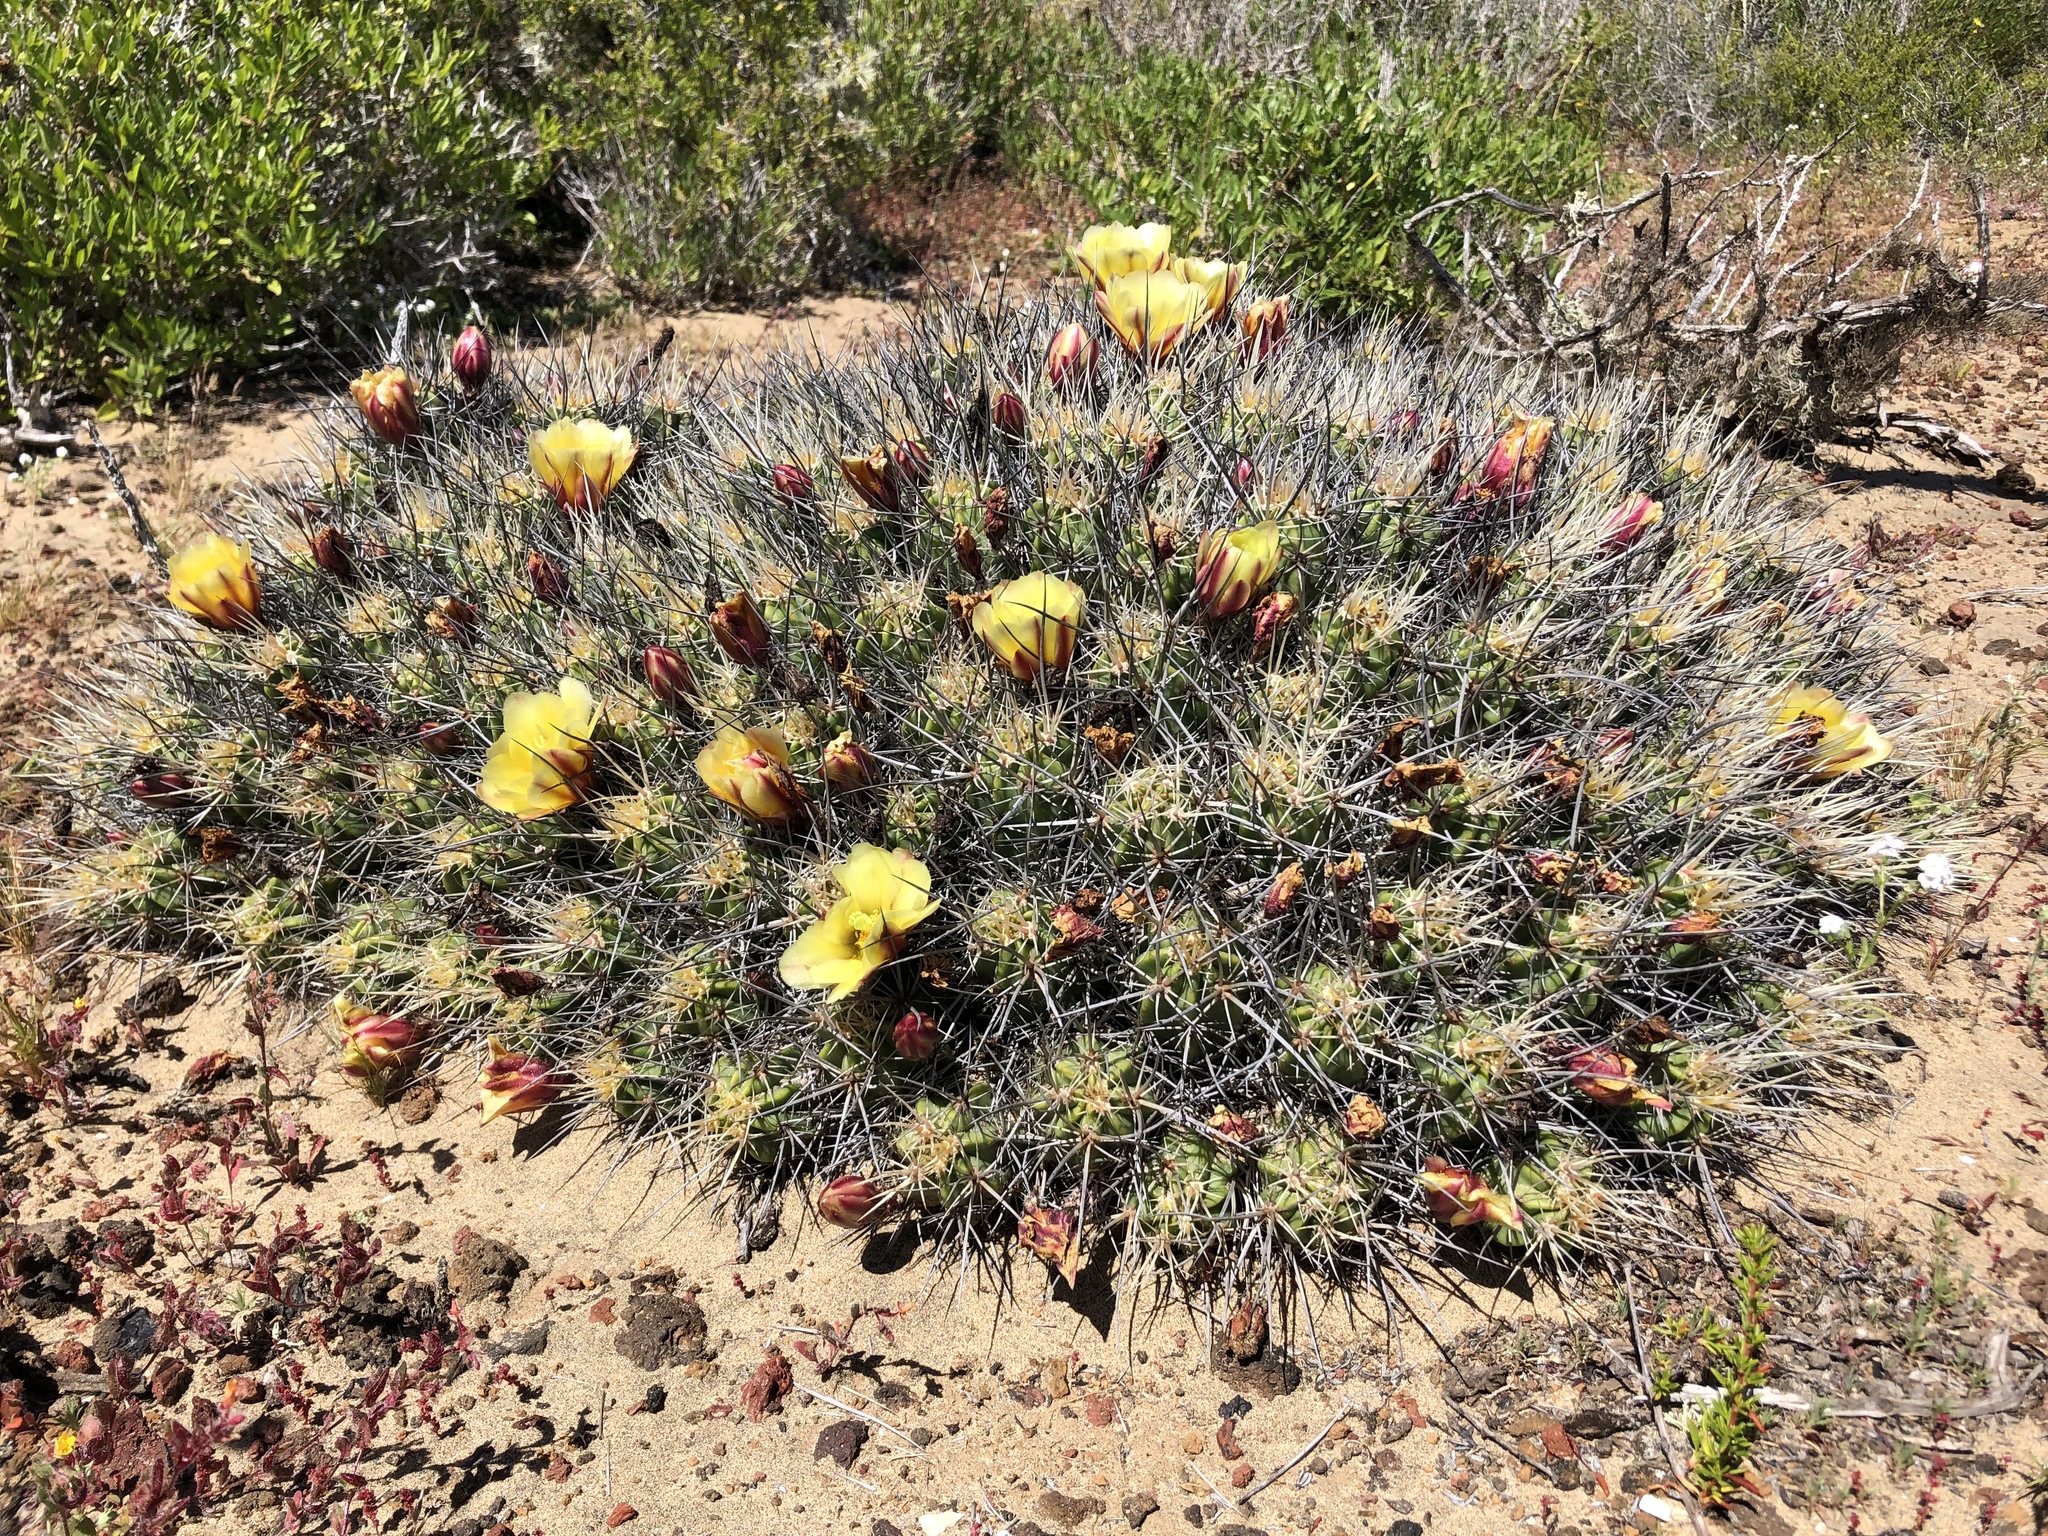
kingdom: Plantae
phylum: Tracheophyta
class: Magnoliopsida
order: Caryophyllales
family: Cactaceae
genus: Echinocereus
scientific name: Echinocereus maritimus
